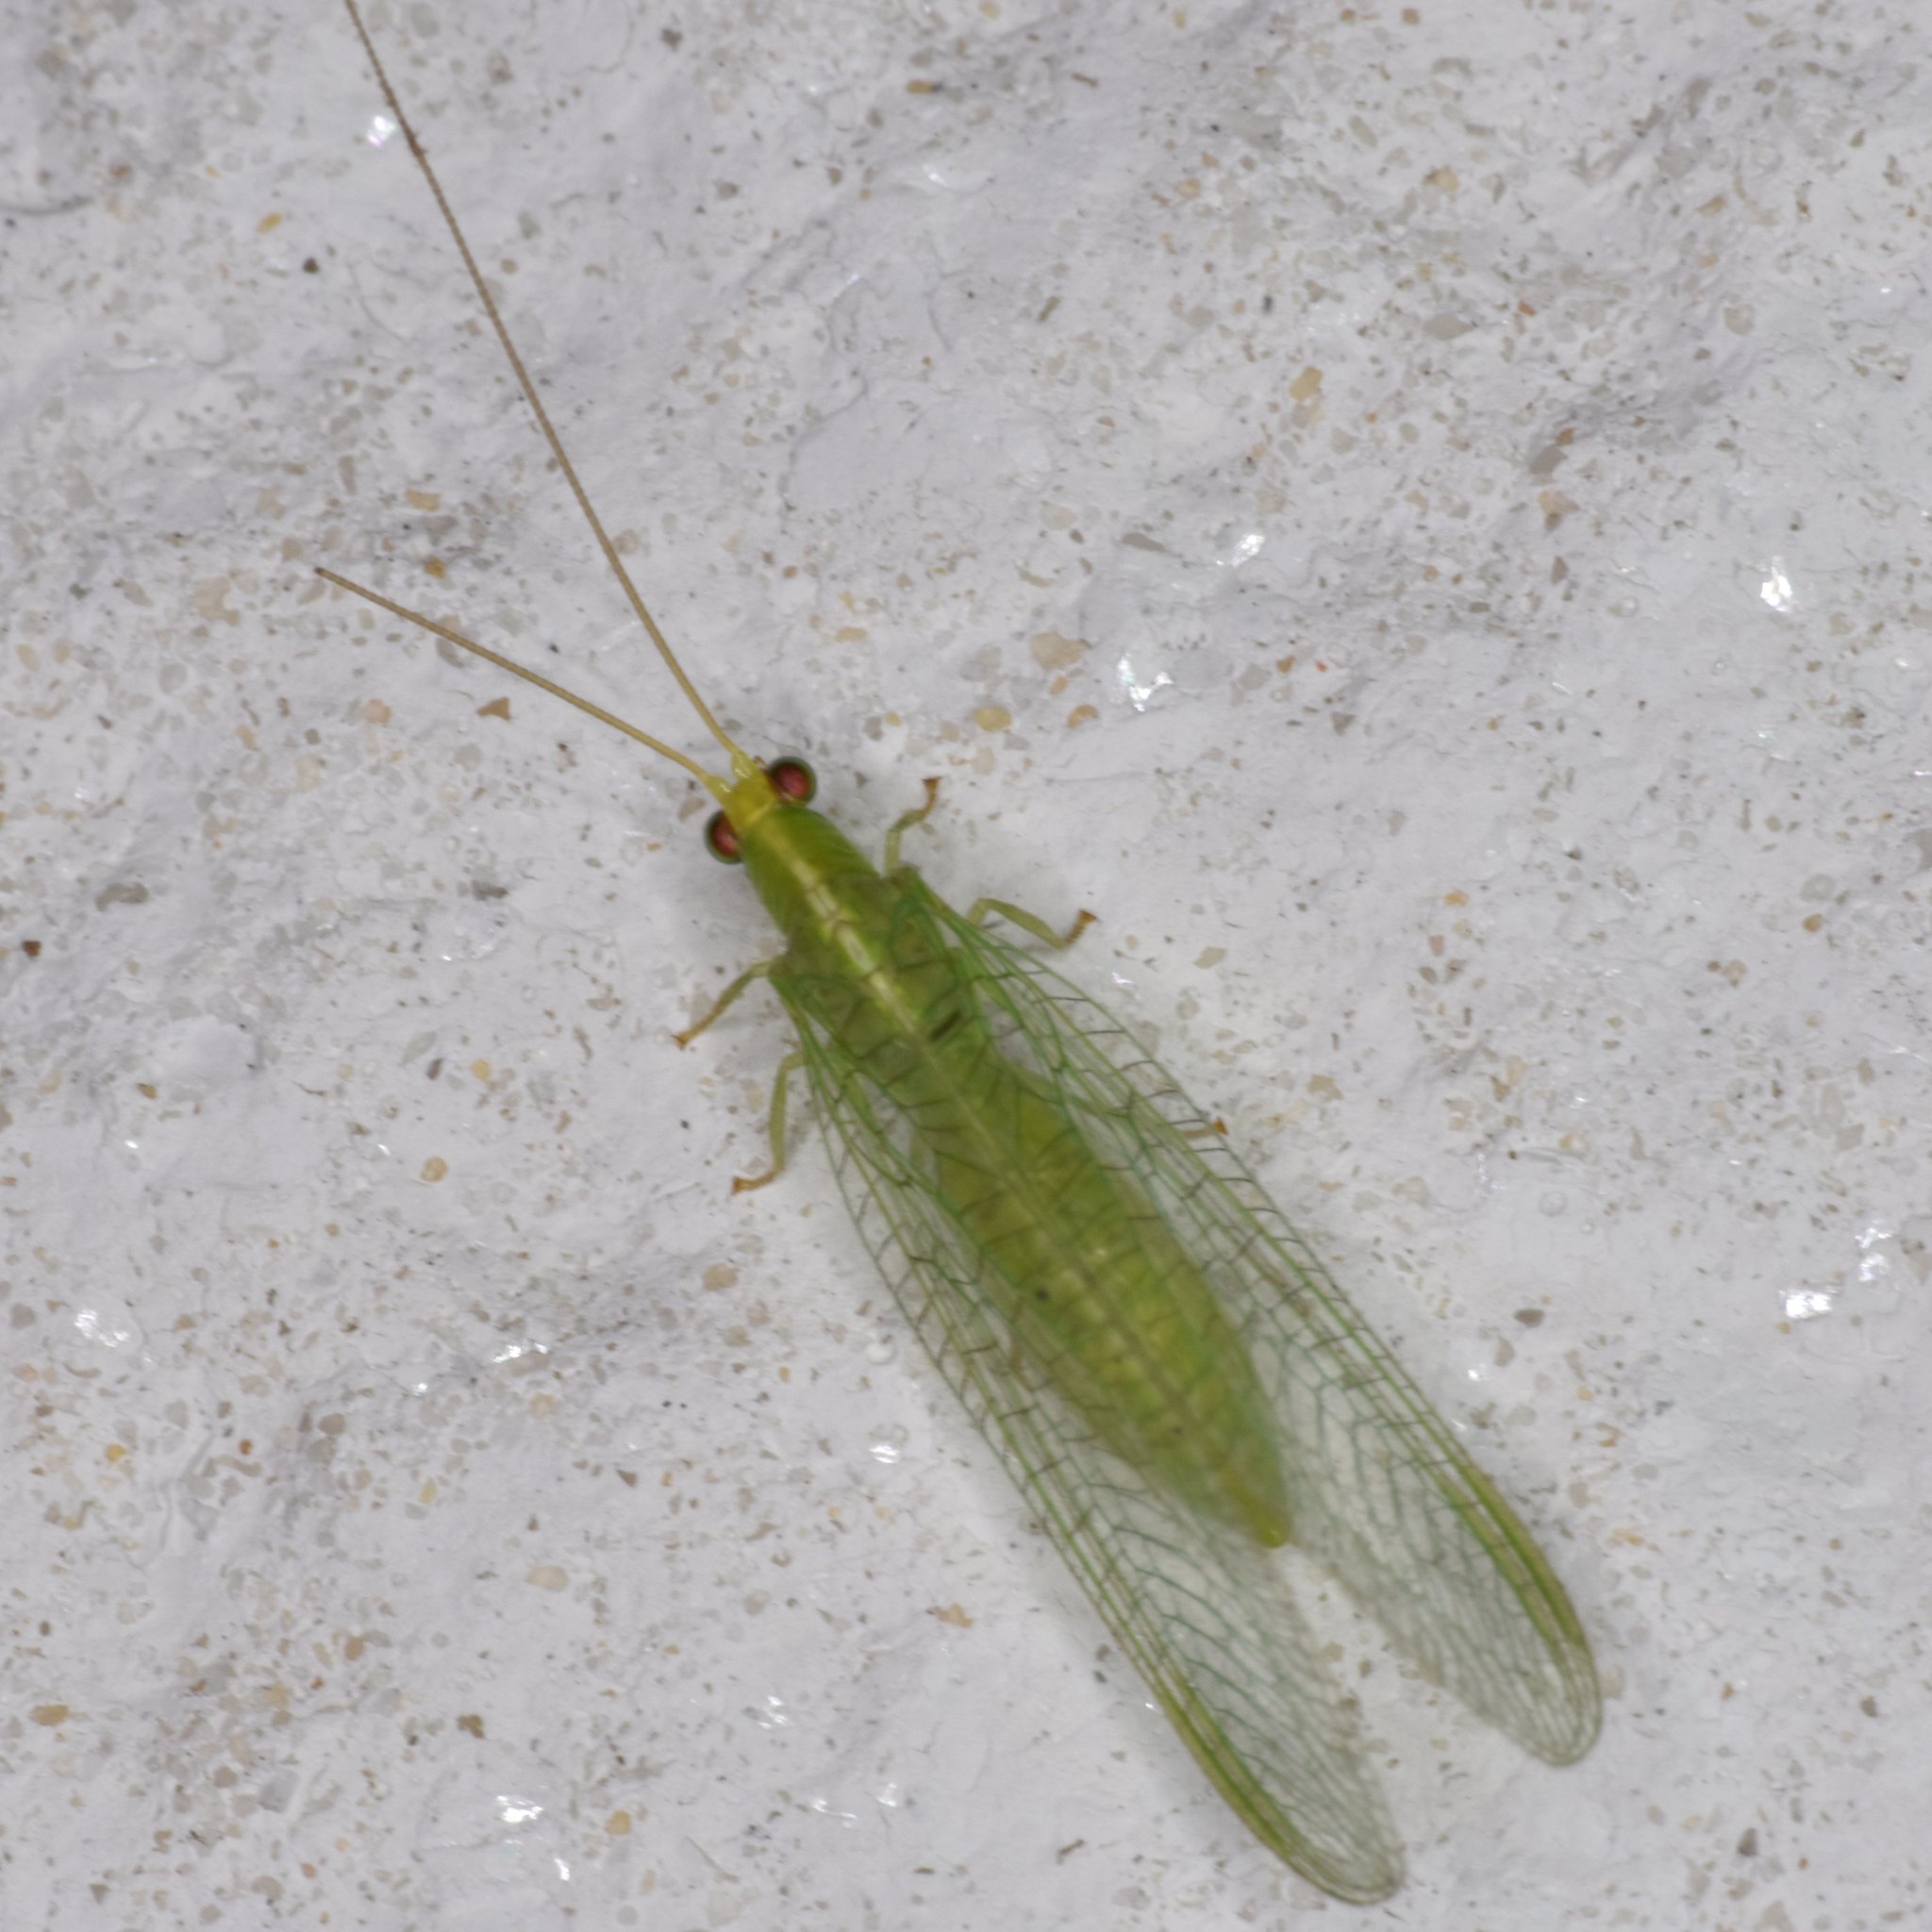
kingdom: Animalia
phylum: Arthropoda
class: Insecta
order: Neuroptera
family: Chrysopidae
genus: Chrysopodes
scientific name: Chrysopodes collaris
